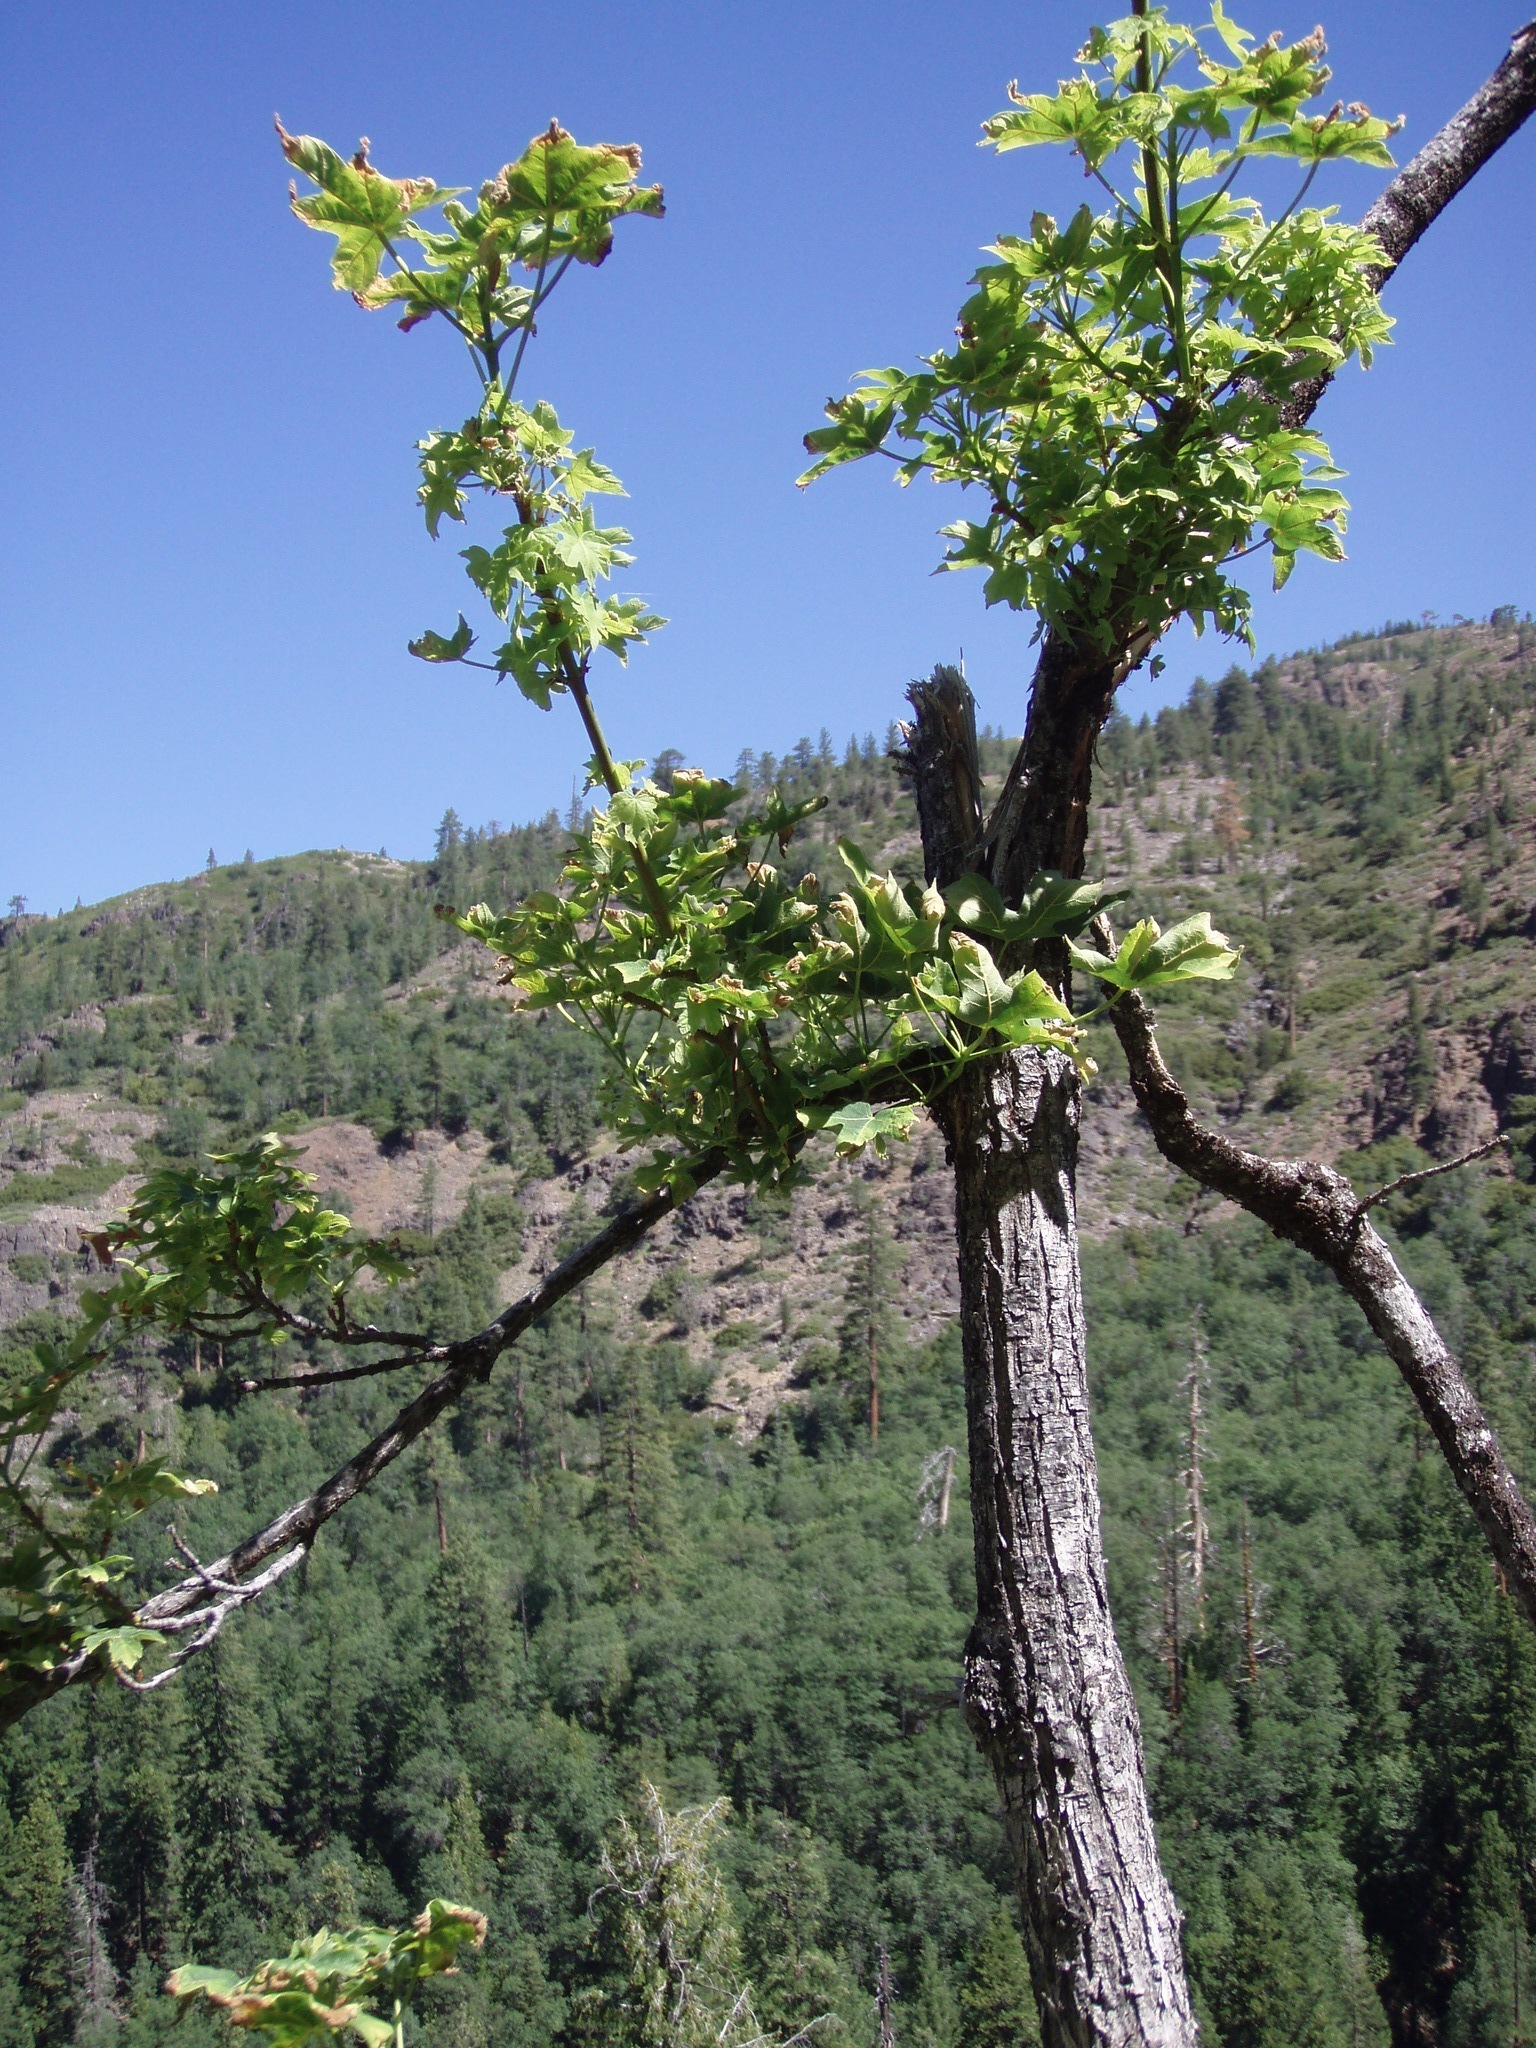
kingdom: Plantae
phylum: Tracheophyta
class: Magnoliopsida
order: Sapindales
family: Sapindaceae
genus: Acer
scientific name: Acer macrophyllum
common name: Oregon maple
